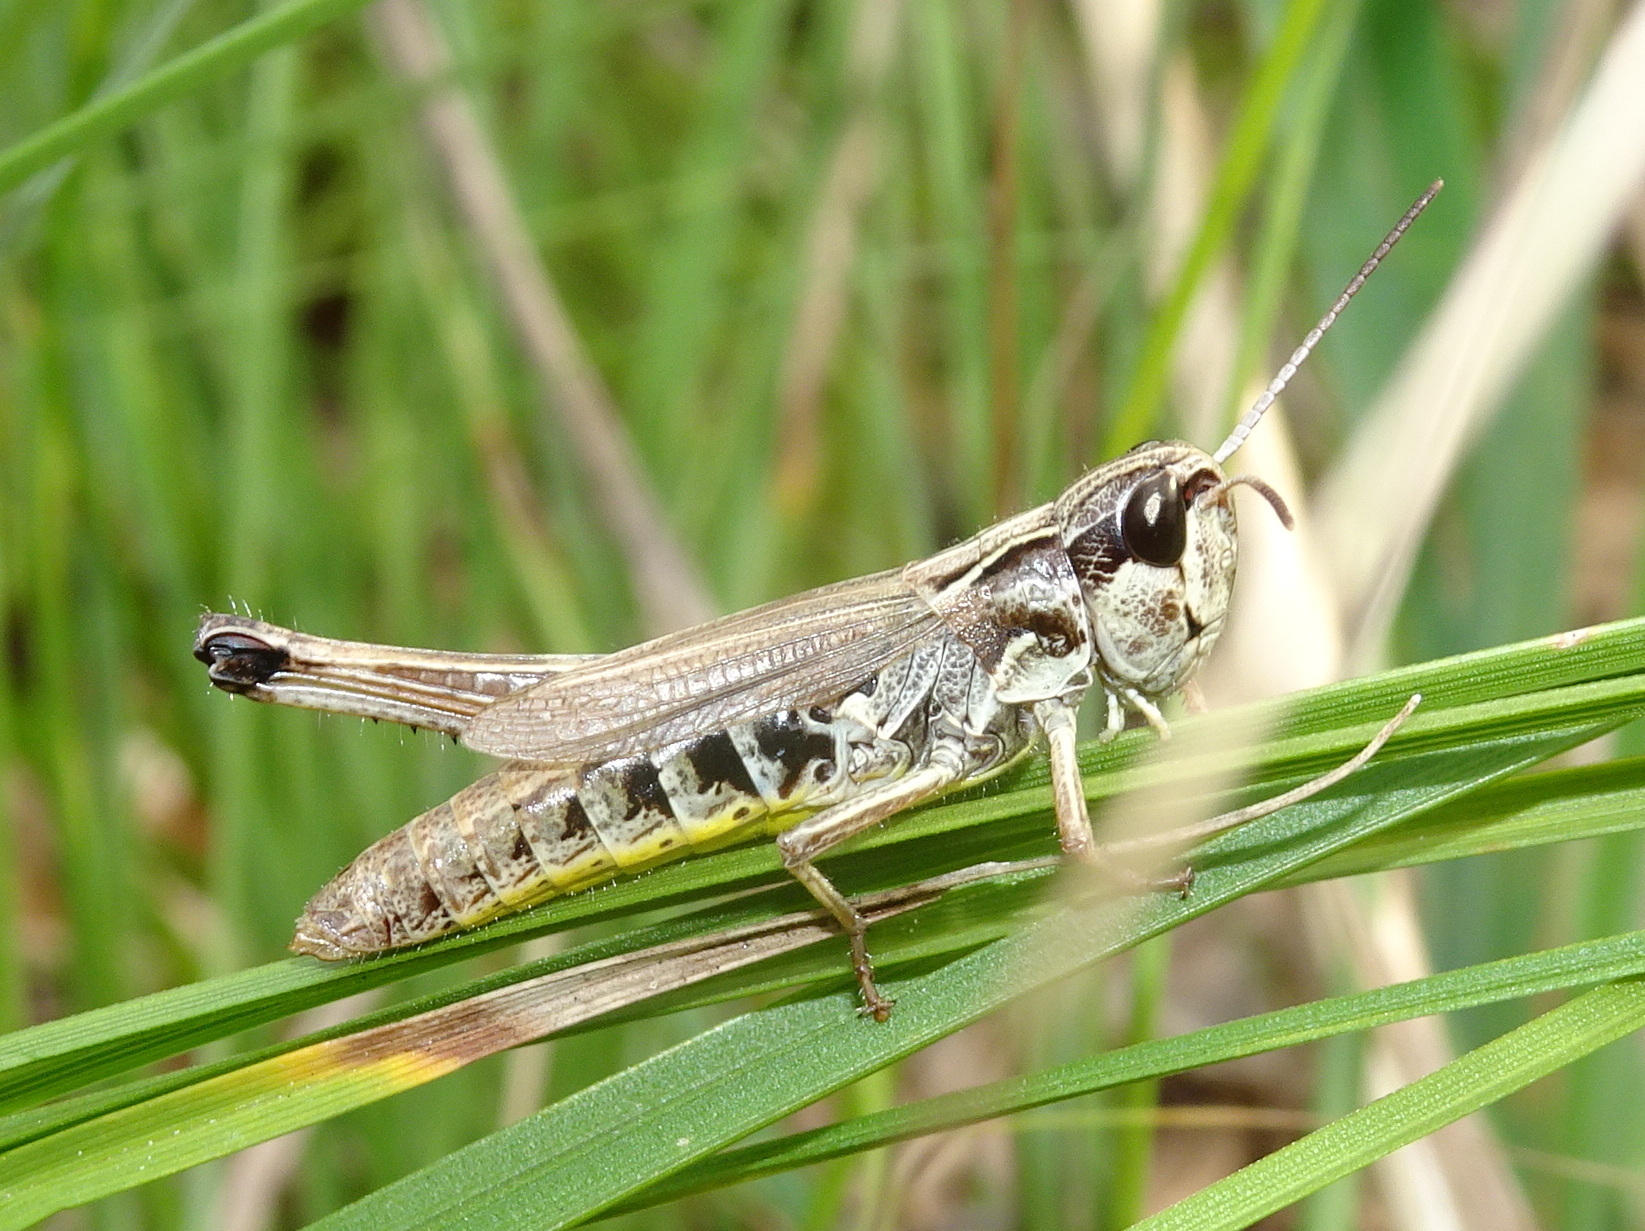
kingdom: Animalia
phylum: Arthropoda
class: Insecta
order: Orthoptera
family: Acrididae
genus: Pseudochorthippus
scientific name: Pseudochorthippus curtipennis
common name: Marsh meadow grasshopper
